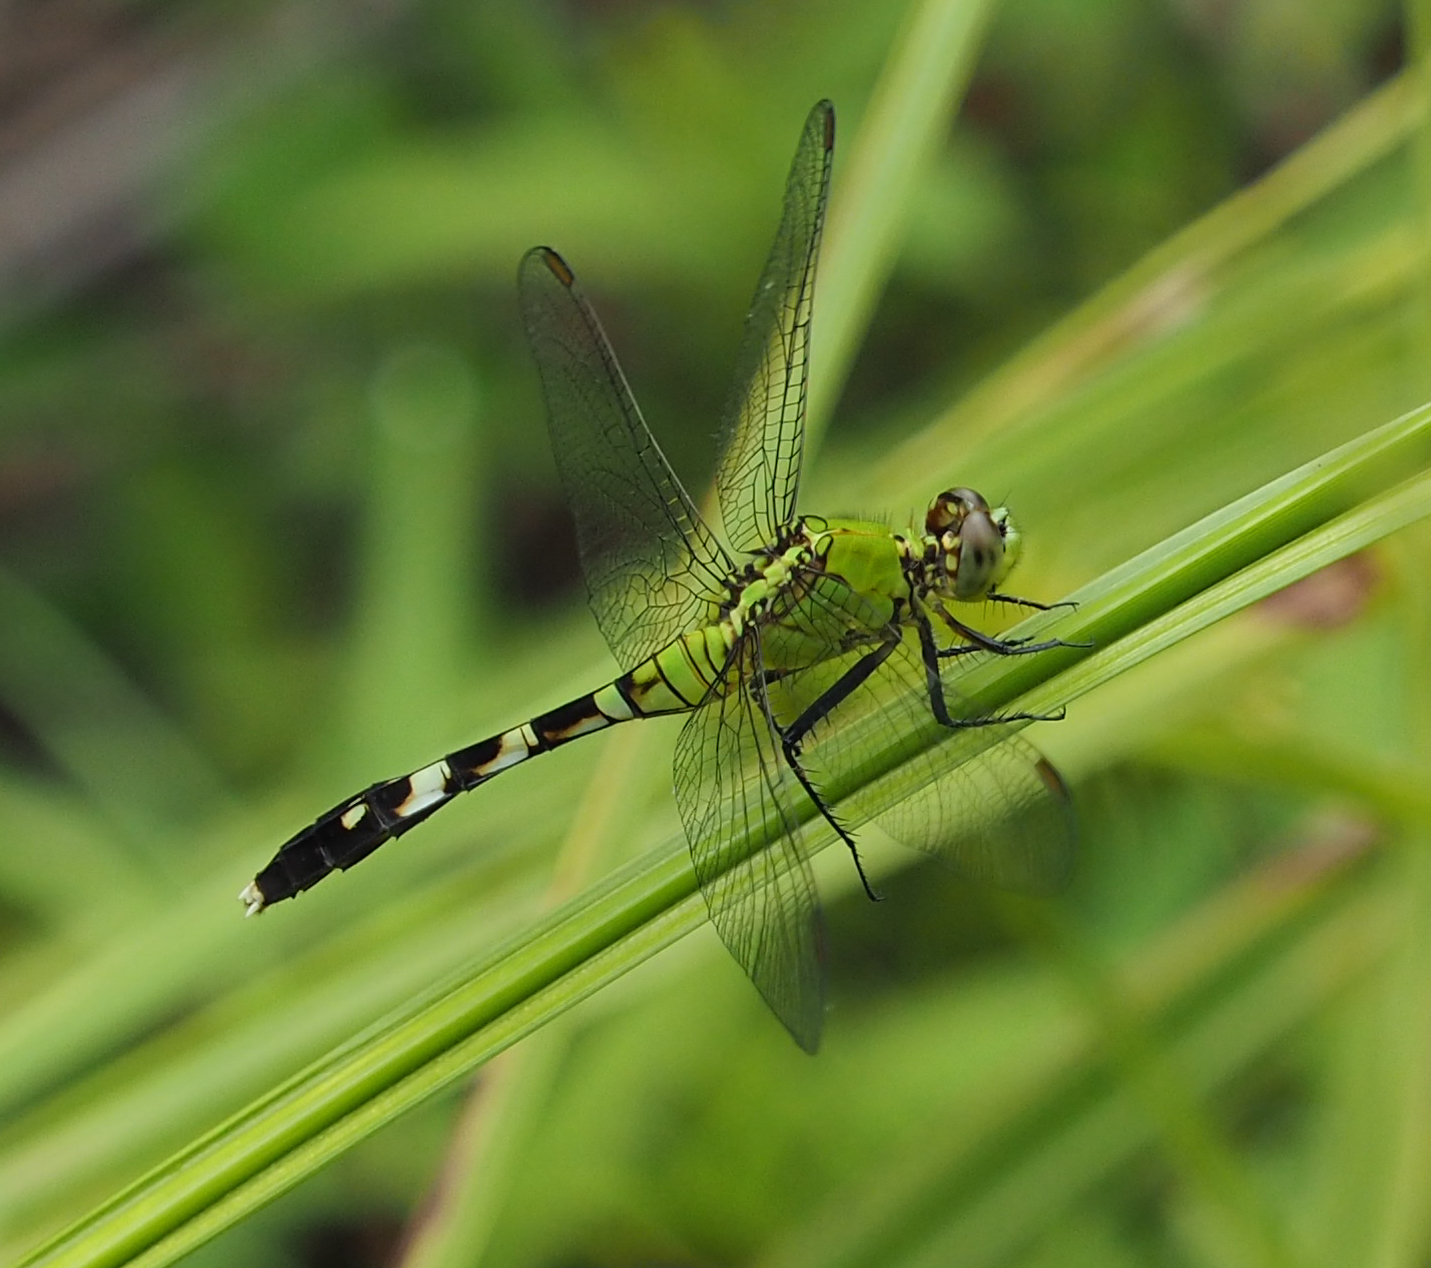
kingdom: Animalia
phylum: Arthropoda
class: Insecta
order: Odonata
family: Libellulidae
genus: Erythemis
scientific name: Erythemis simplicicollis
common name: Eastern pondhawk
